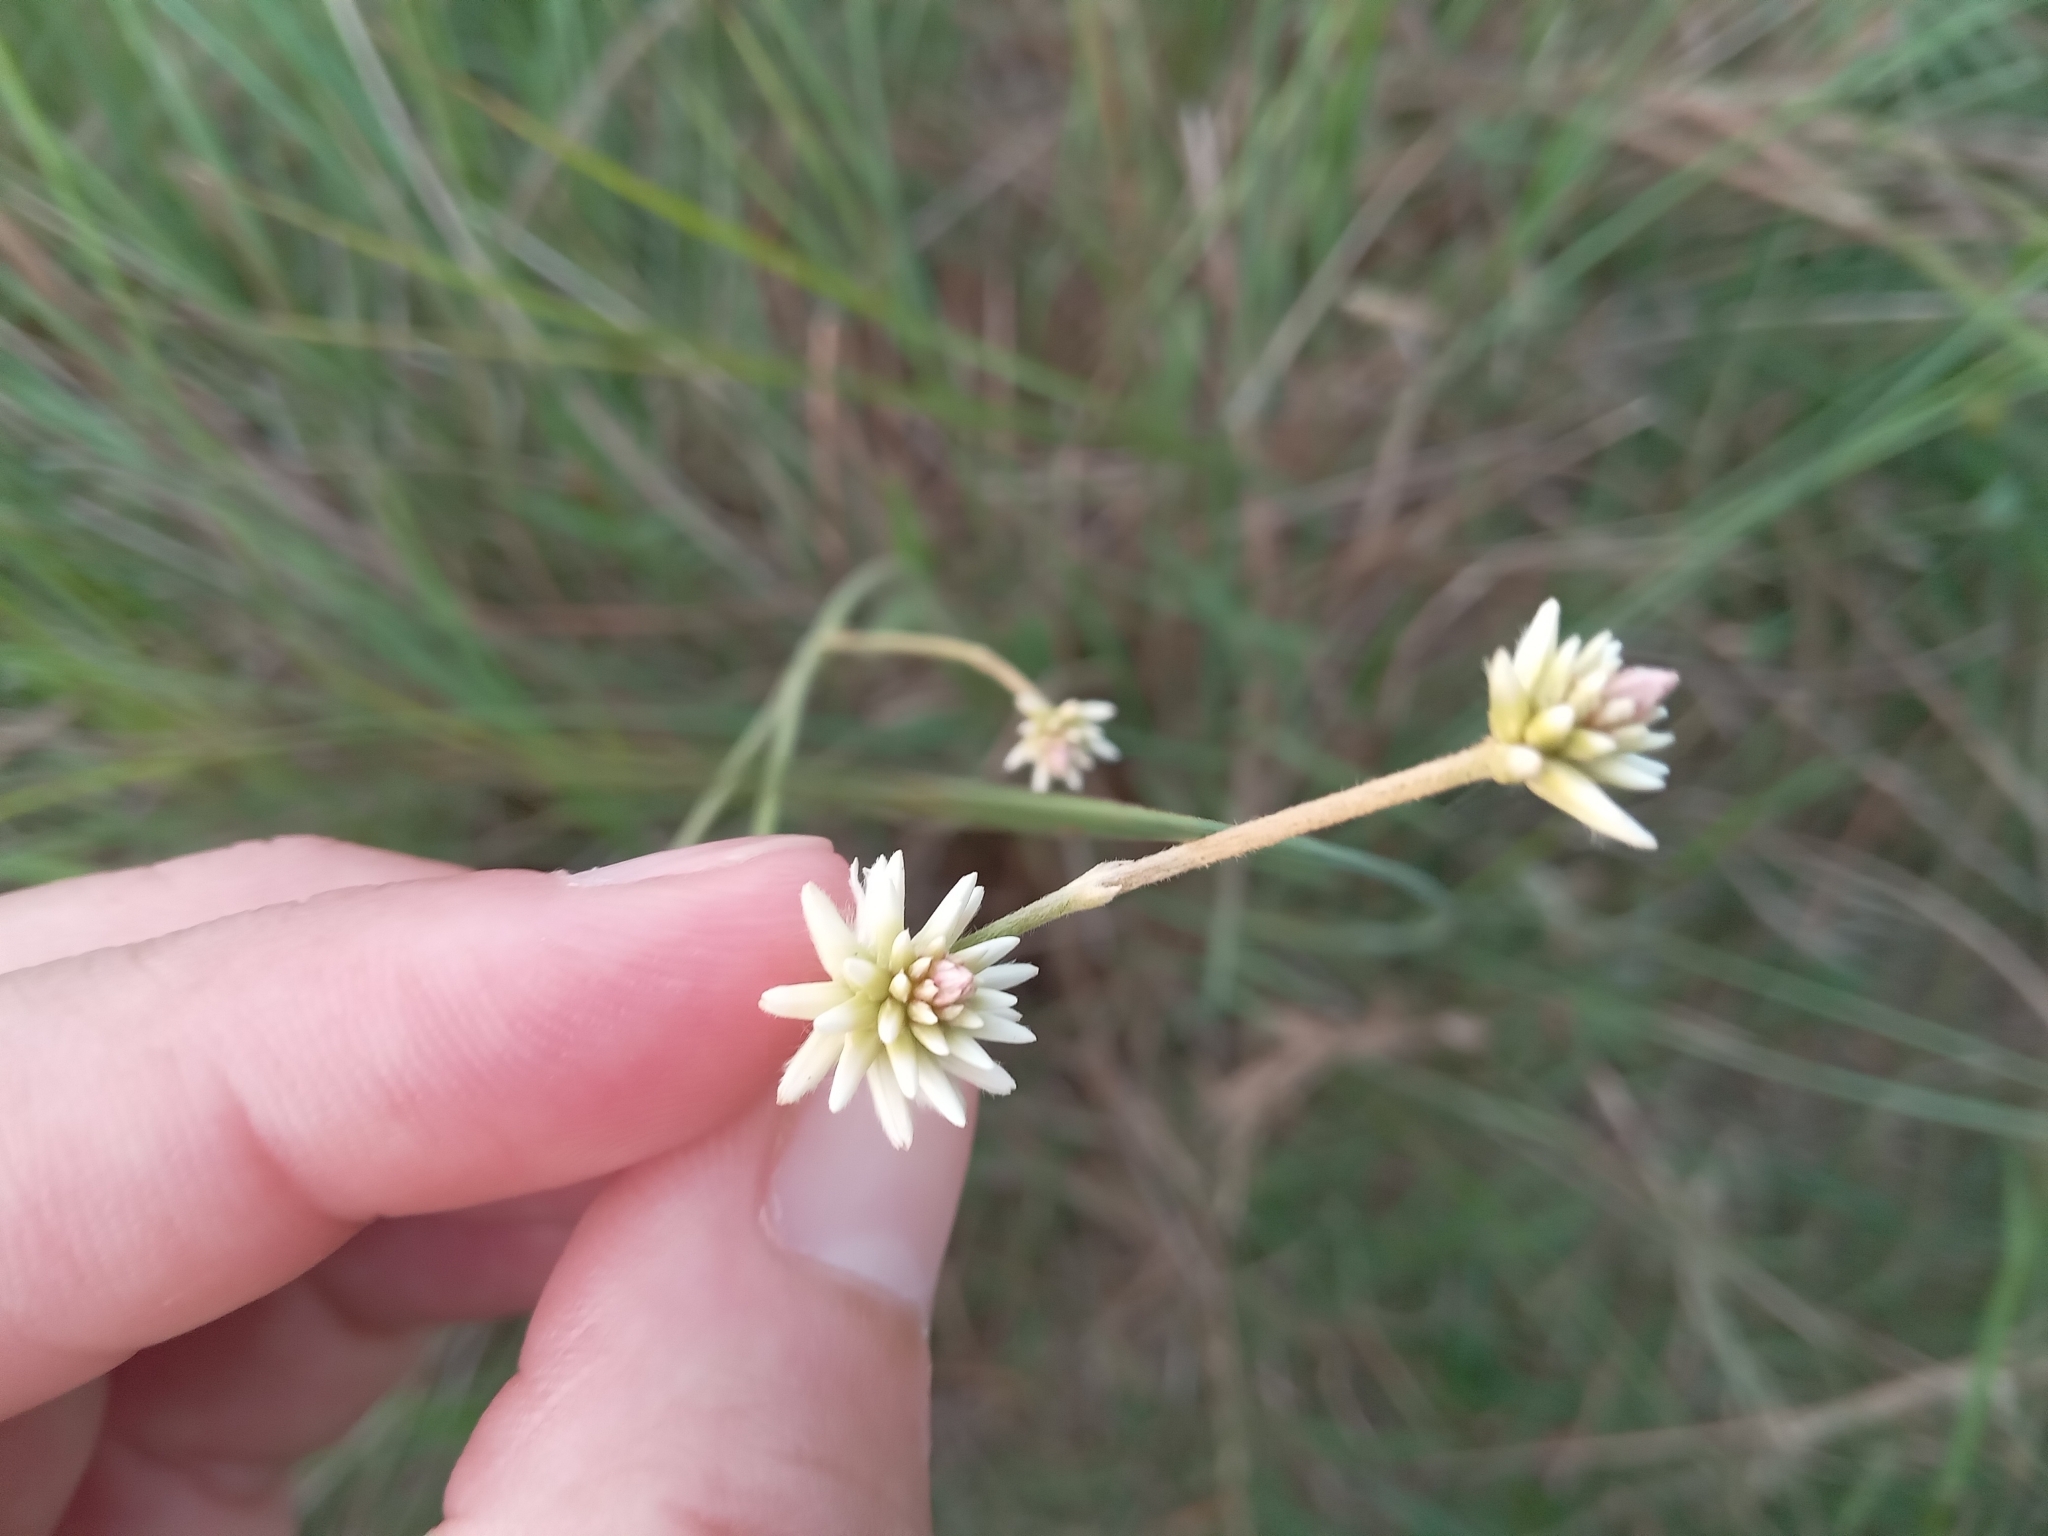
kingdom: Plantae
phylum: Tracheophyta
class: Magnoliopsida
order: Caryophyllales
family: Amaranthaceae
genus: Pfaffia
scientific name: Pfaffia tuberosa
